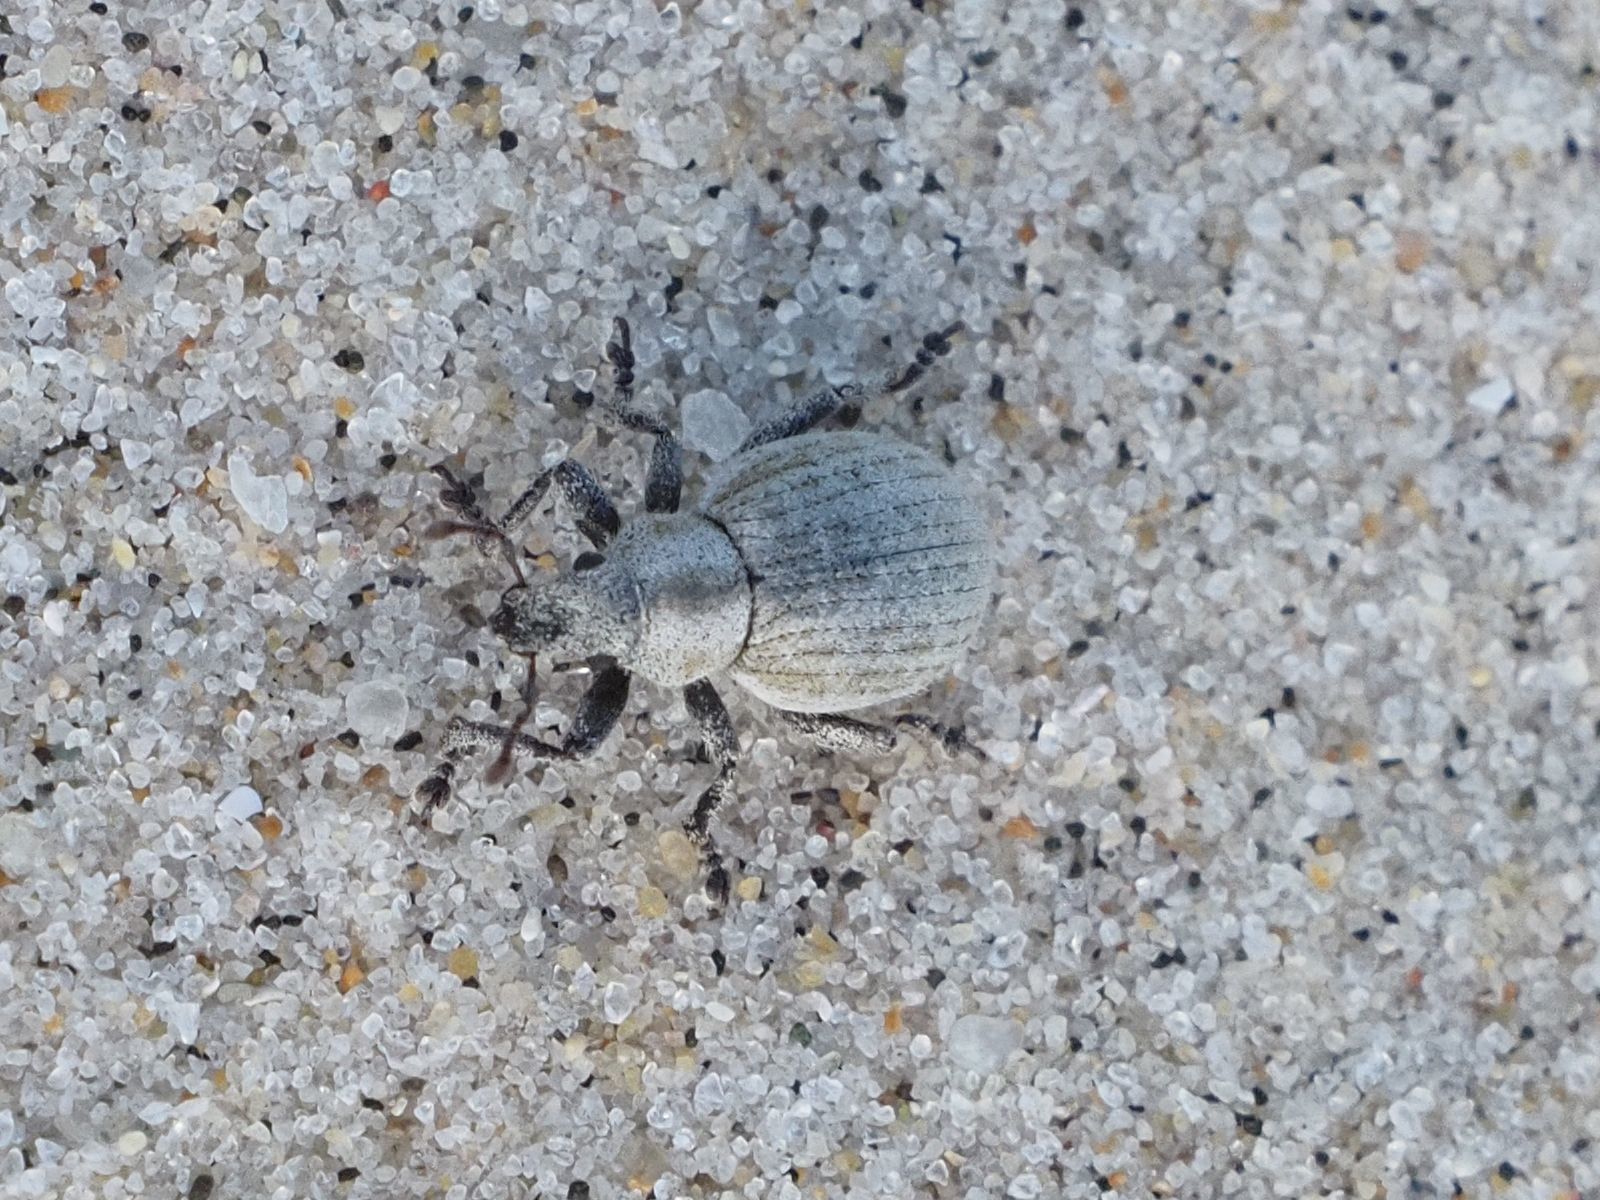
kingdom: Animalia
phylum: Arthropoda
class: Insecta
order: Coleoptera
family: Curculionidae
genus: Philopedon
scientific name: Philopedon plagiatum
